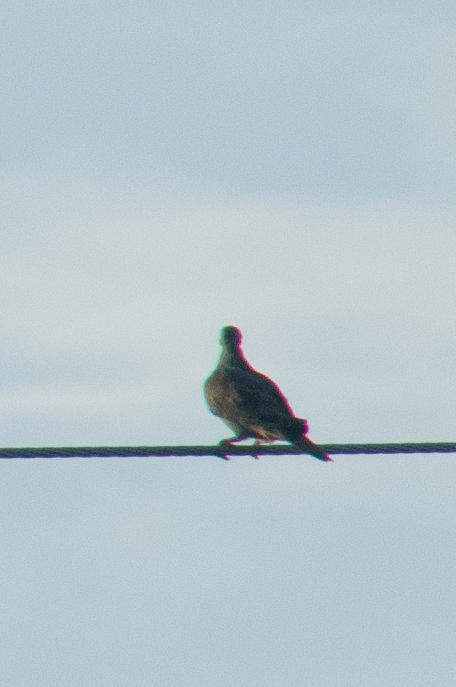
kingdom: Animalia
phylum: Chordata
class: Aves
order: Columbiformes
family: Columbidae
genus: Zenaida
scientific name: Zenaida macroura
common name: Mourning dove
